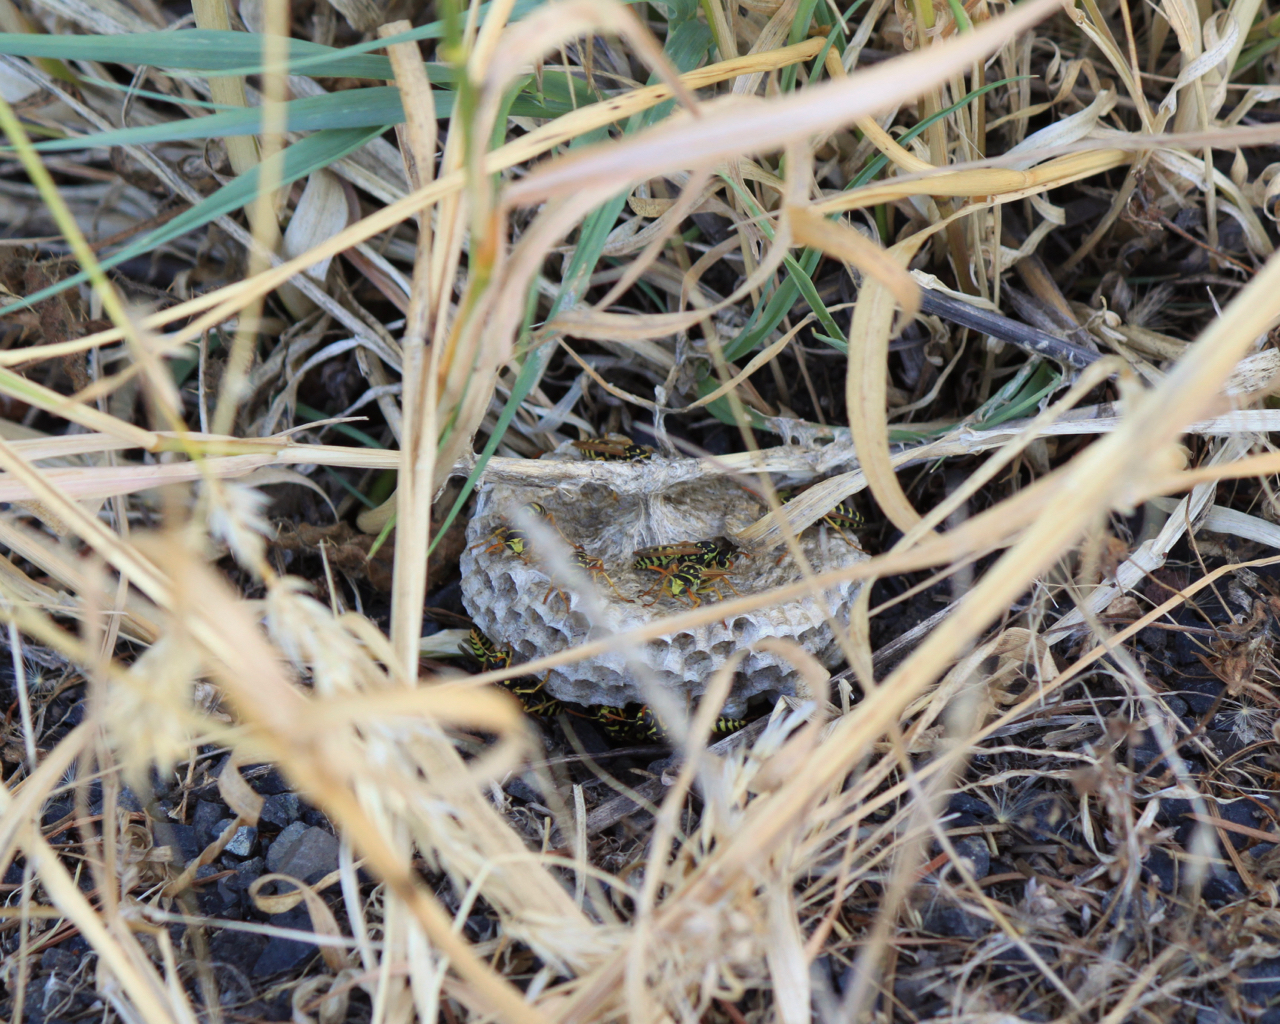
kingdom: Animalia
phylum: Arthropoda
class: Insecta
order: Hymenoptera
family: Eumenidae
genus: Polistes
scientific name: Polistes dominula
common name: Paper wasp
